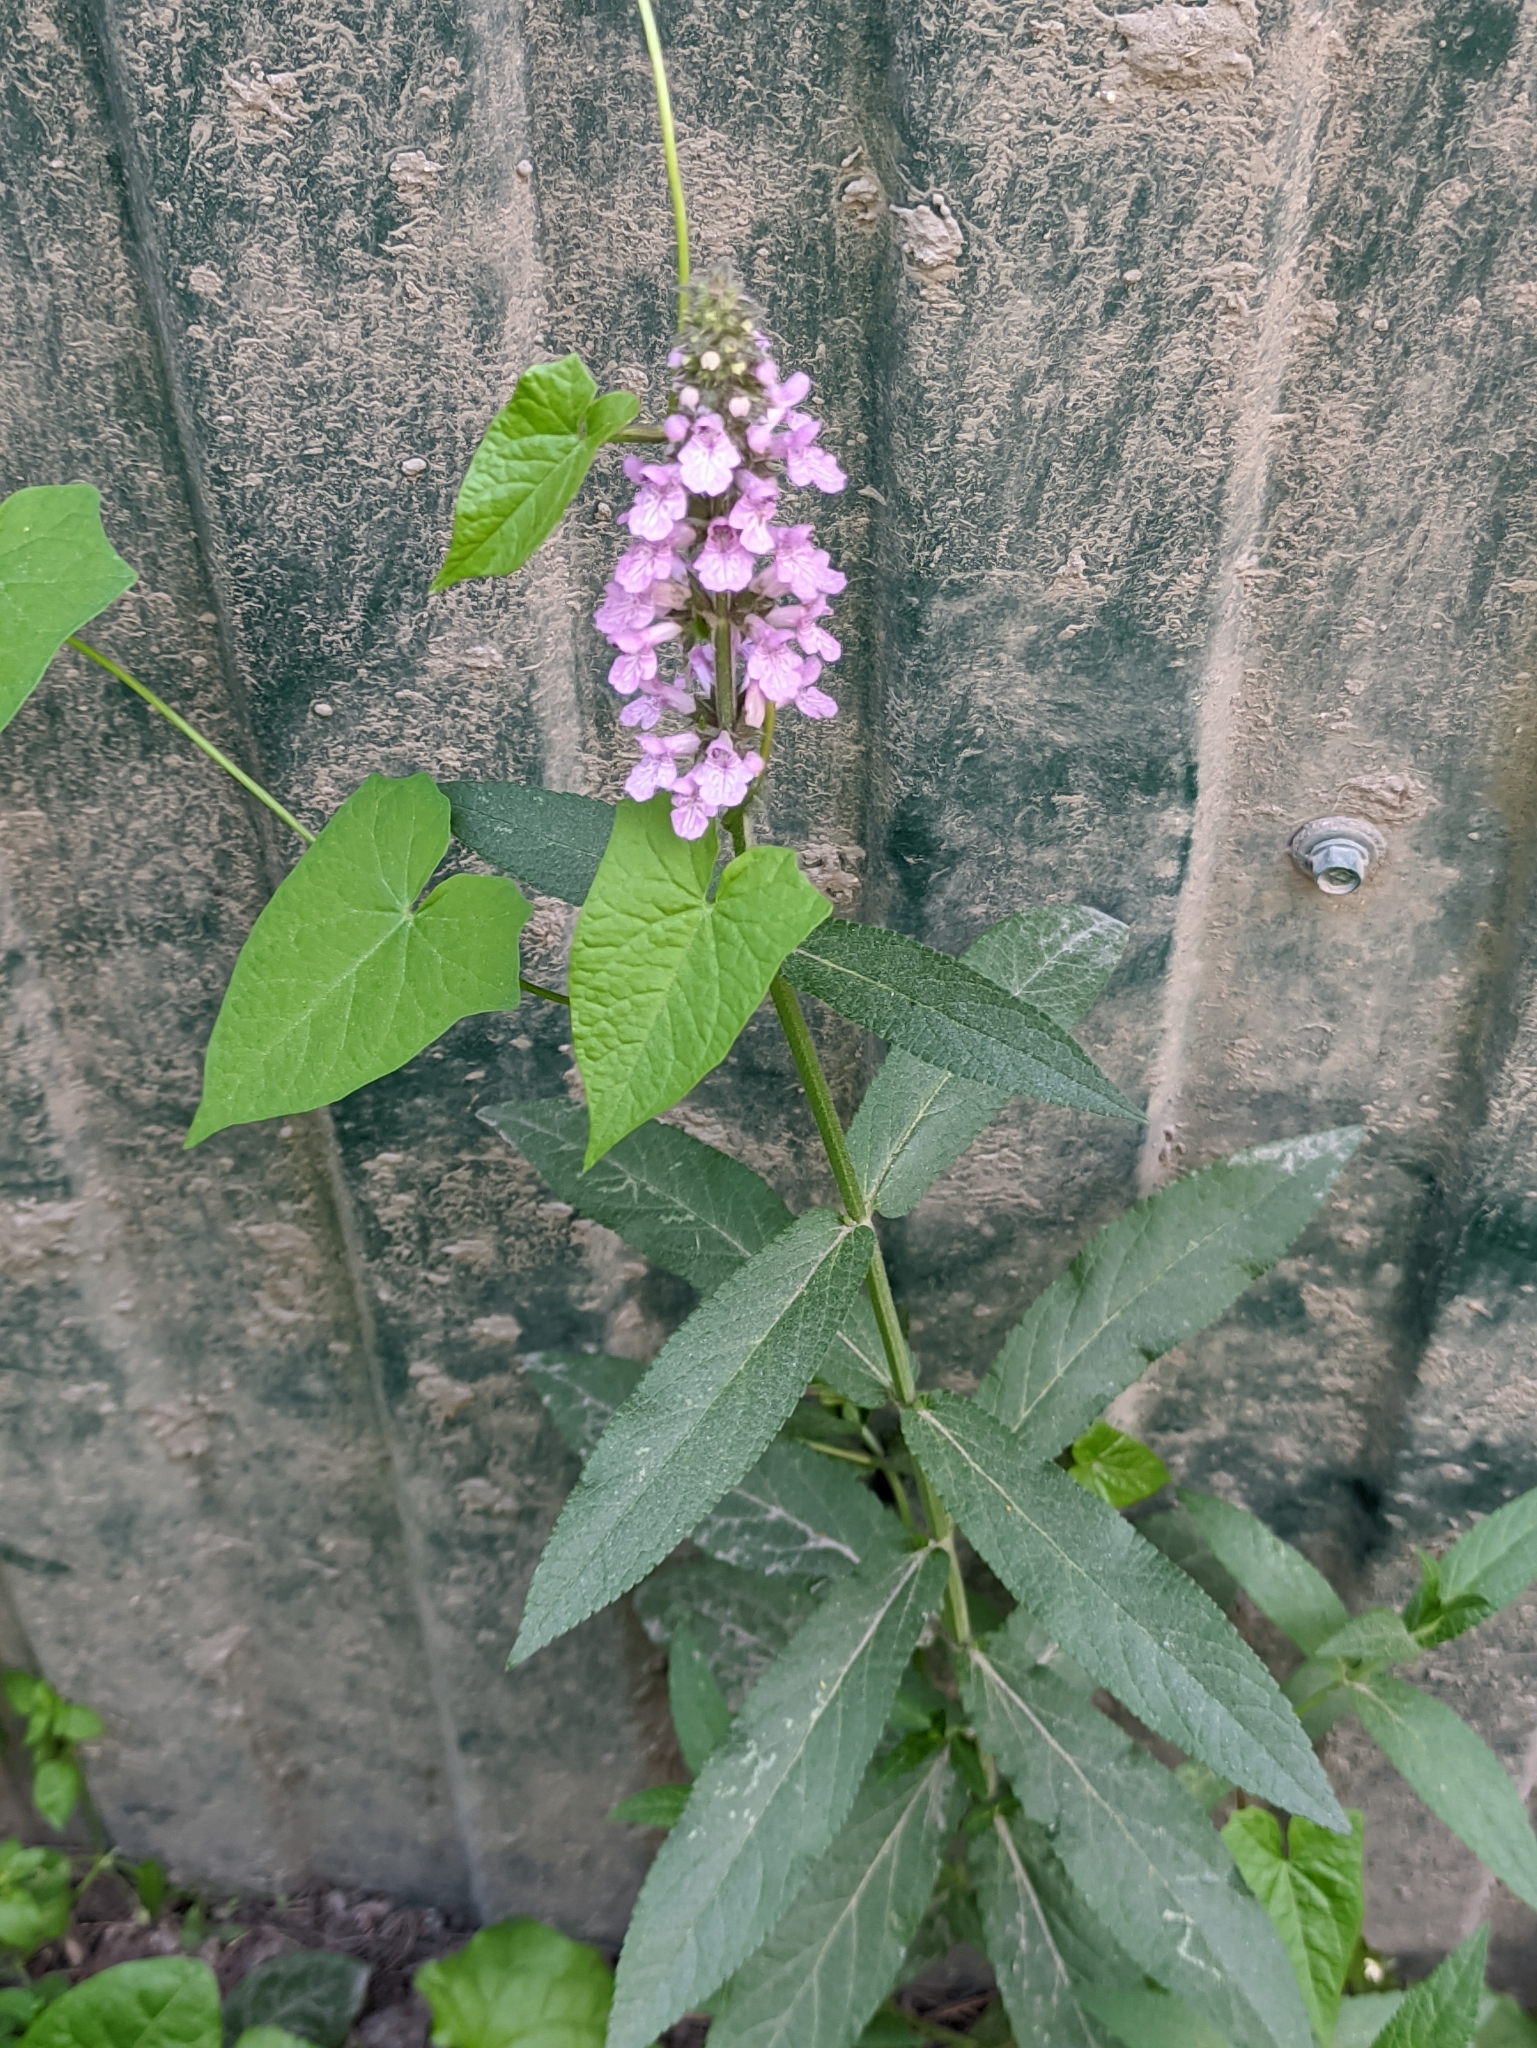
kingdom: Plantae
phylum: Tracheophyta
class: Magnoliopsida
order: Lamiales
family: Lamiaceae
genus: Stachys
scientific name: Stachys palustris
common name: Marsh woundwort
